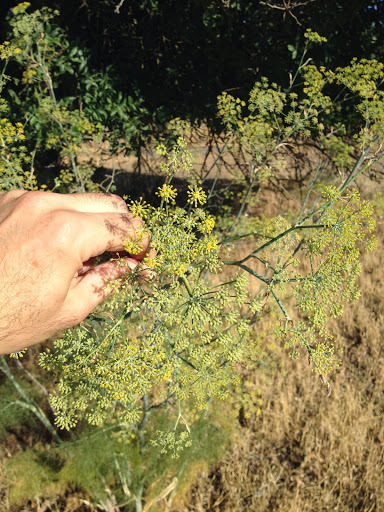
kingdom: Plantae
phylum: Tracheophyta
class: Magnoliopsida
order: Apiales
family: Apiaceae
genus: Foeniculum
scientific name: Foeniculum vulgare
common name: Fennel
